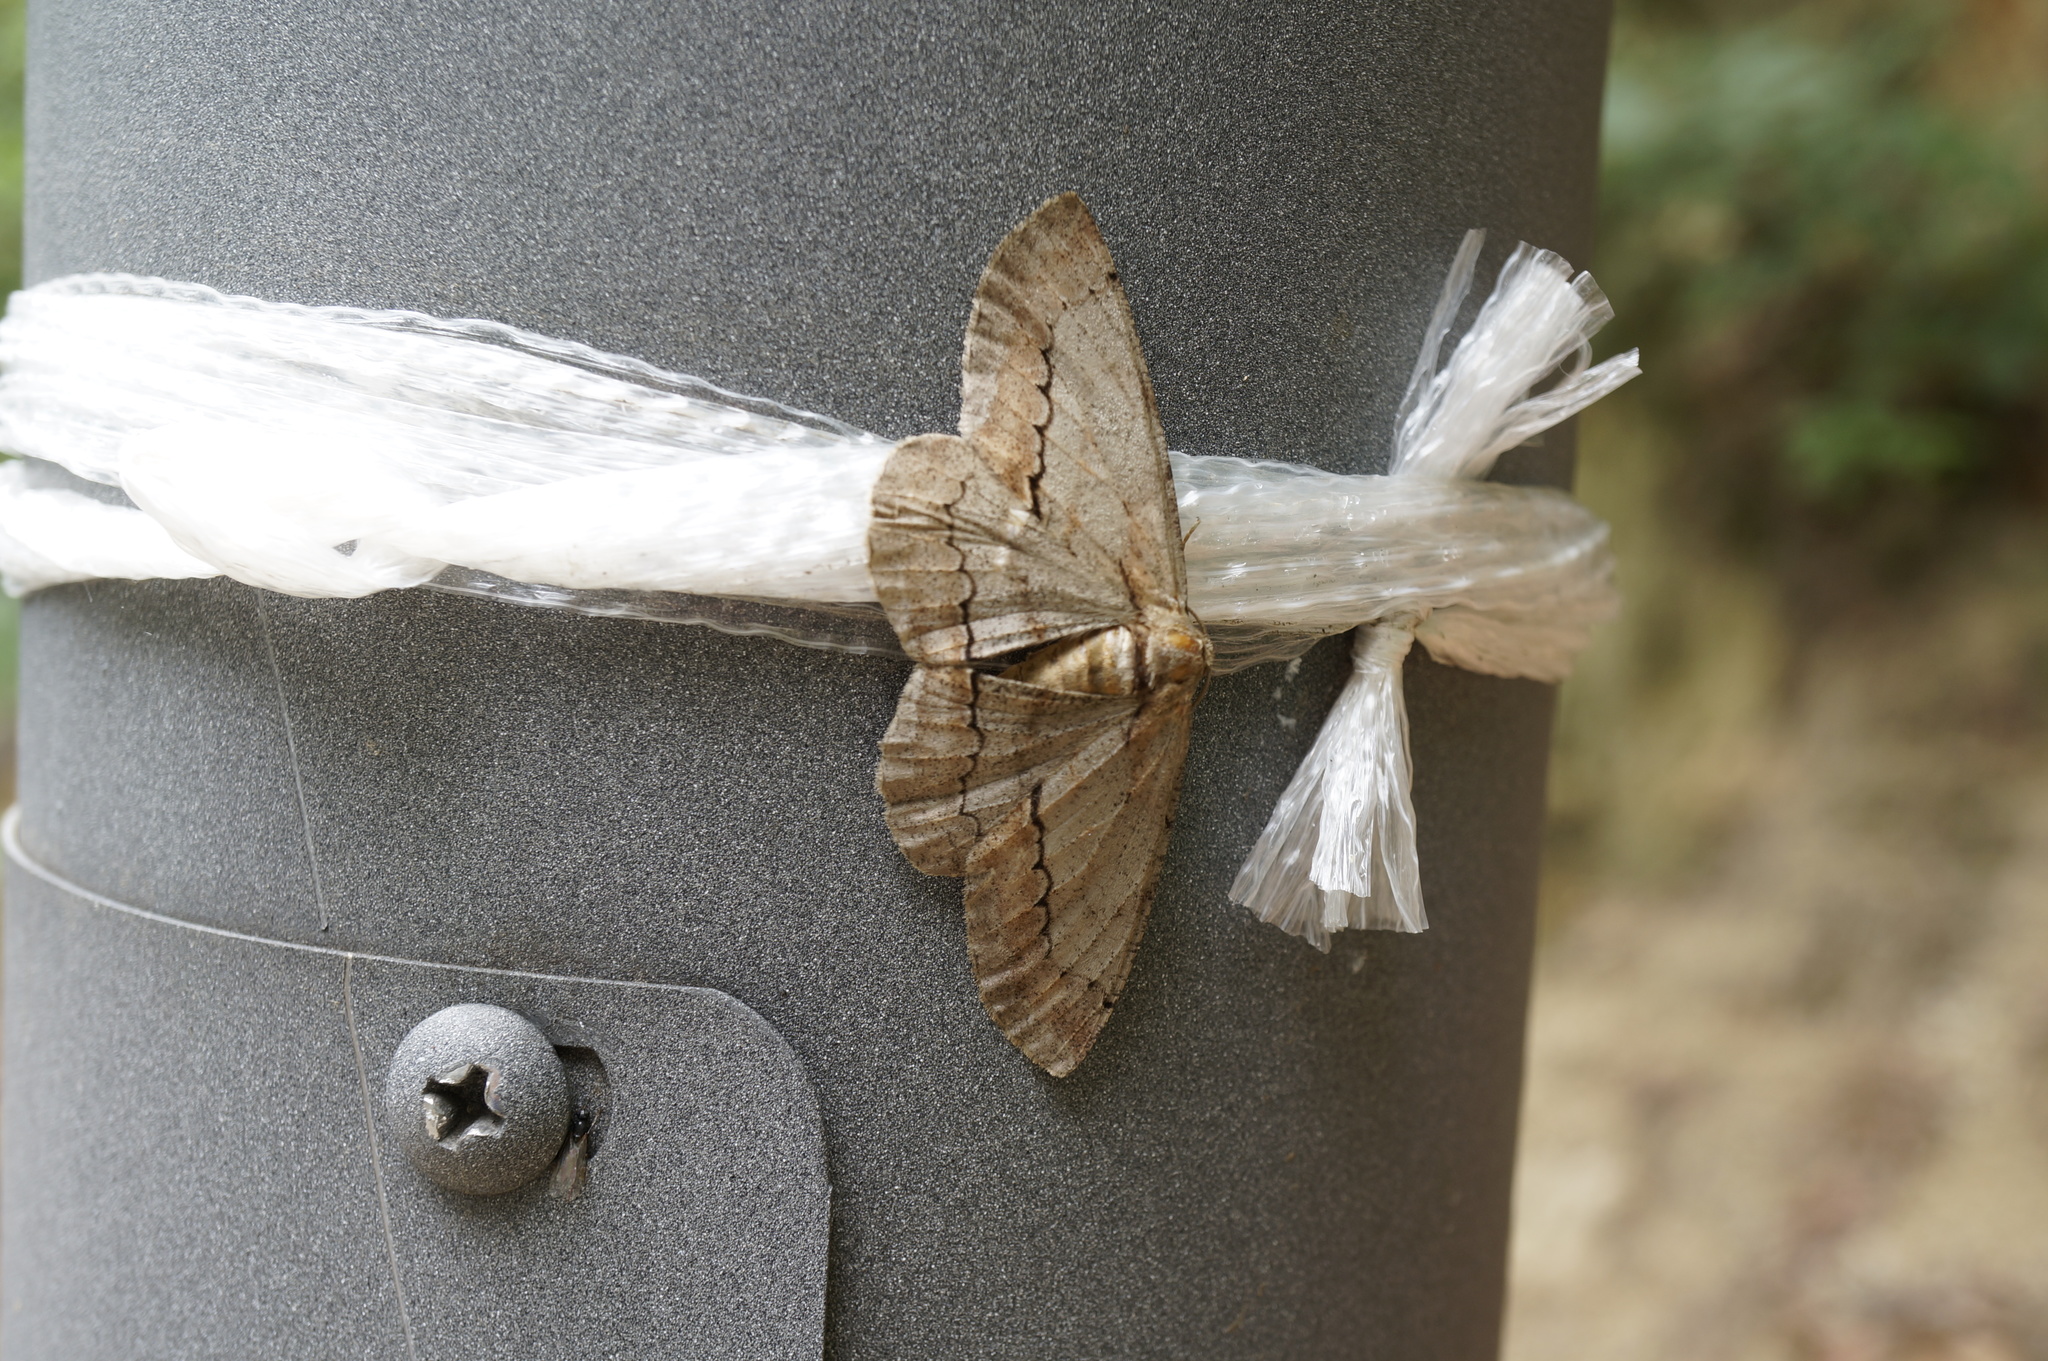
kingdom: Animalia
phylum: Arthropoda
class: Insecta
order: Lepidoptera
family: Geometridae
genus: Phthonosema
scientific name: Phthonosema tendinosaria
